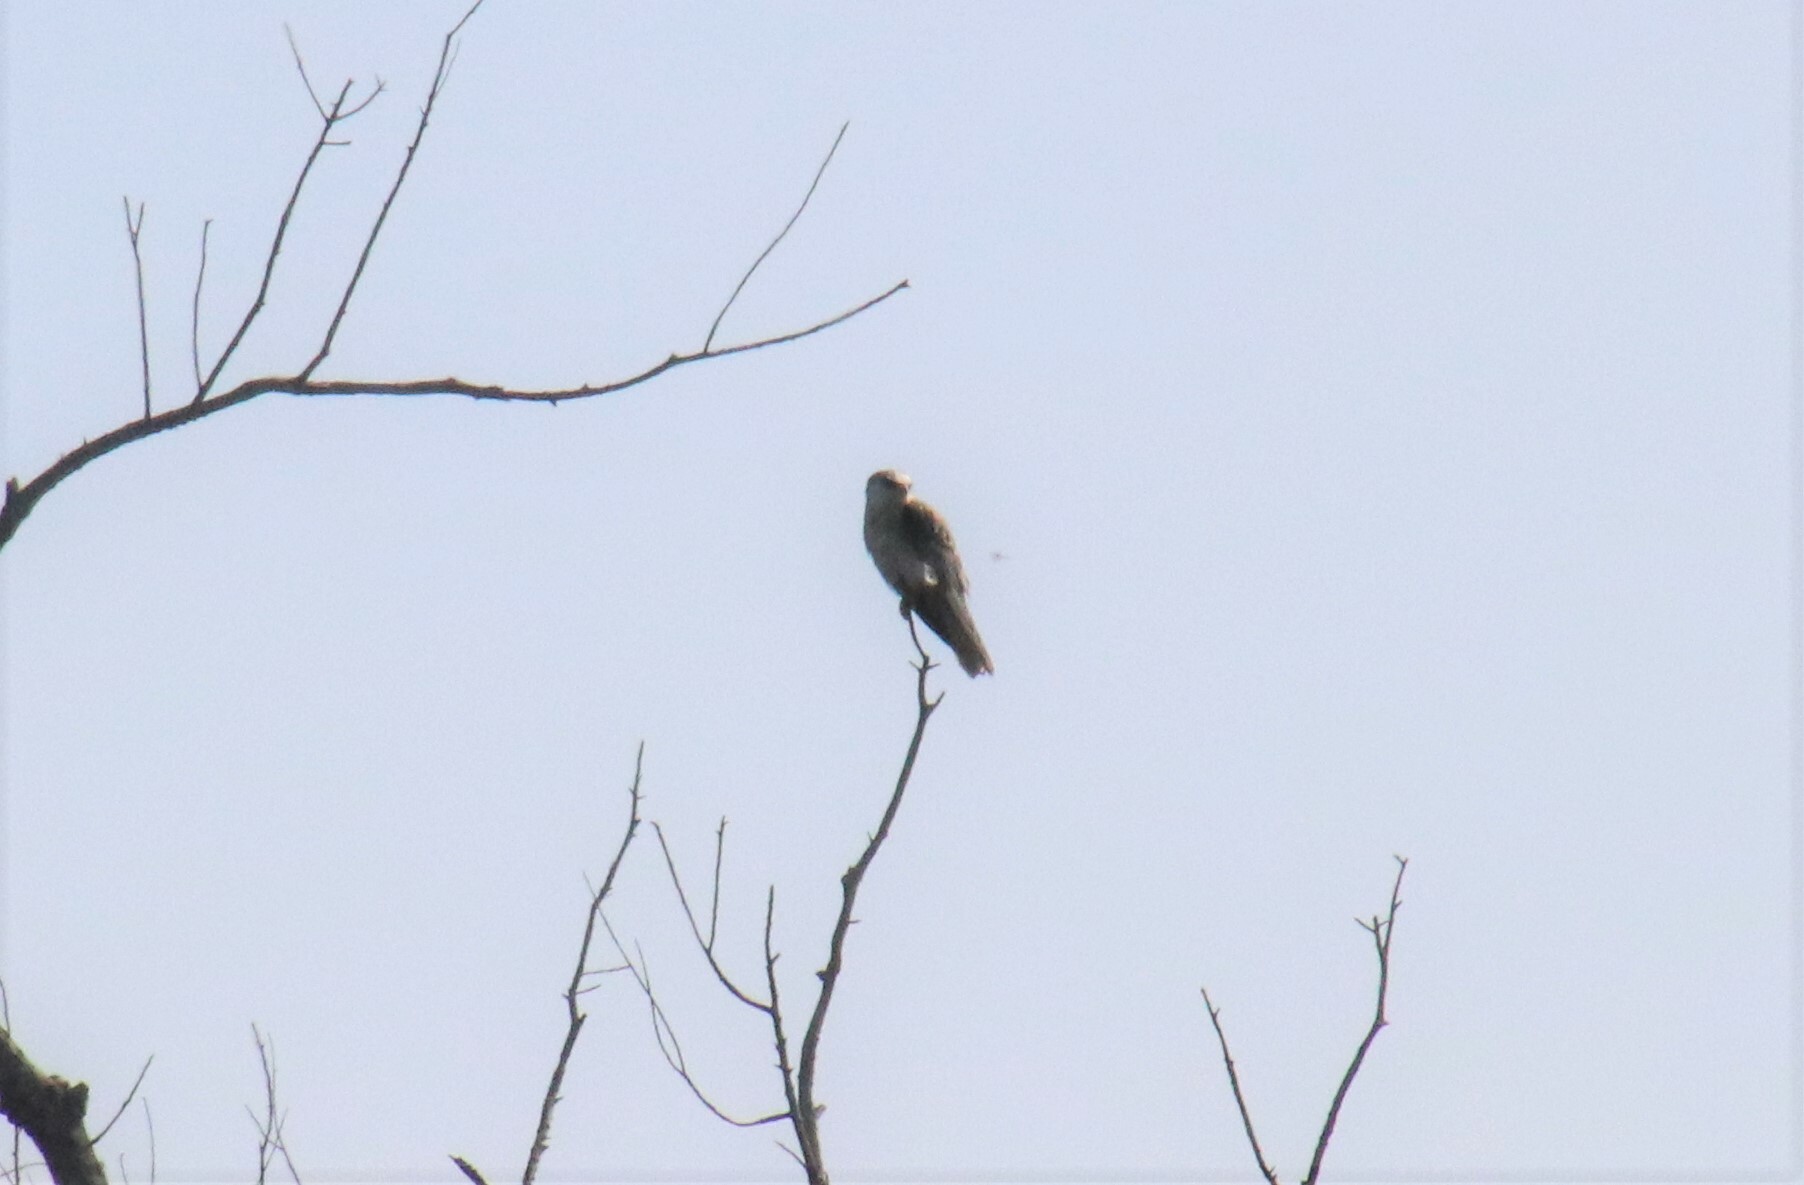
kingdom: Animalia
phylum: Chordata
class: Aves
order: Accipitriformes
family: Accipitridae
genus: Elanus
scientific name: Elanus leucurus
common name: White-tailed kite
